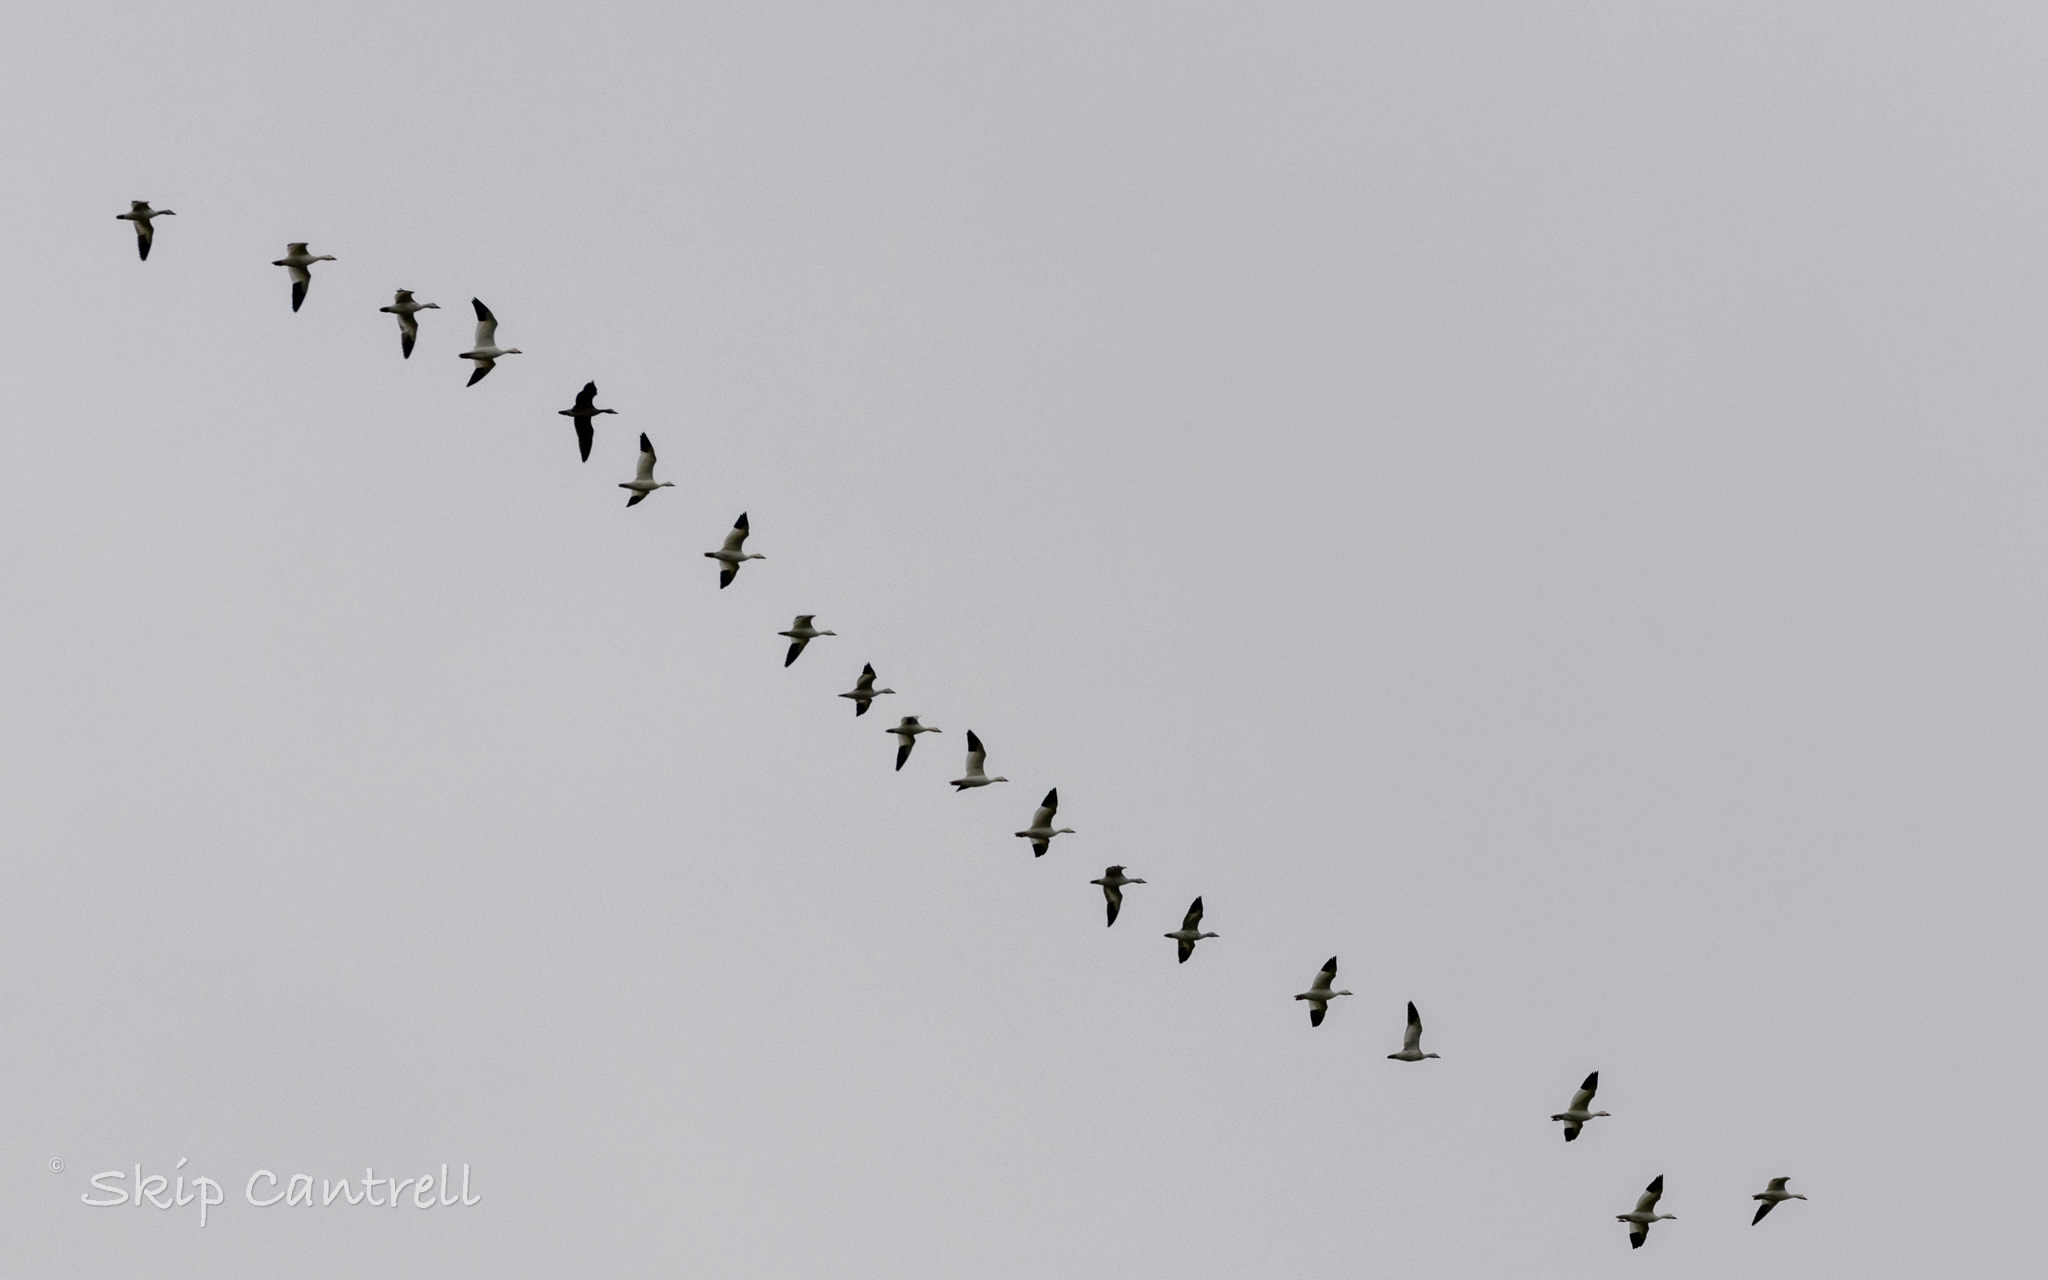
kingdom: Animalia
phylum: Chordata
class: Aves
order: Anseriformes
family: Anatidae
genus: Anser
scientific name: Anser caerulescens
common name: Snow goose
